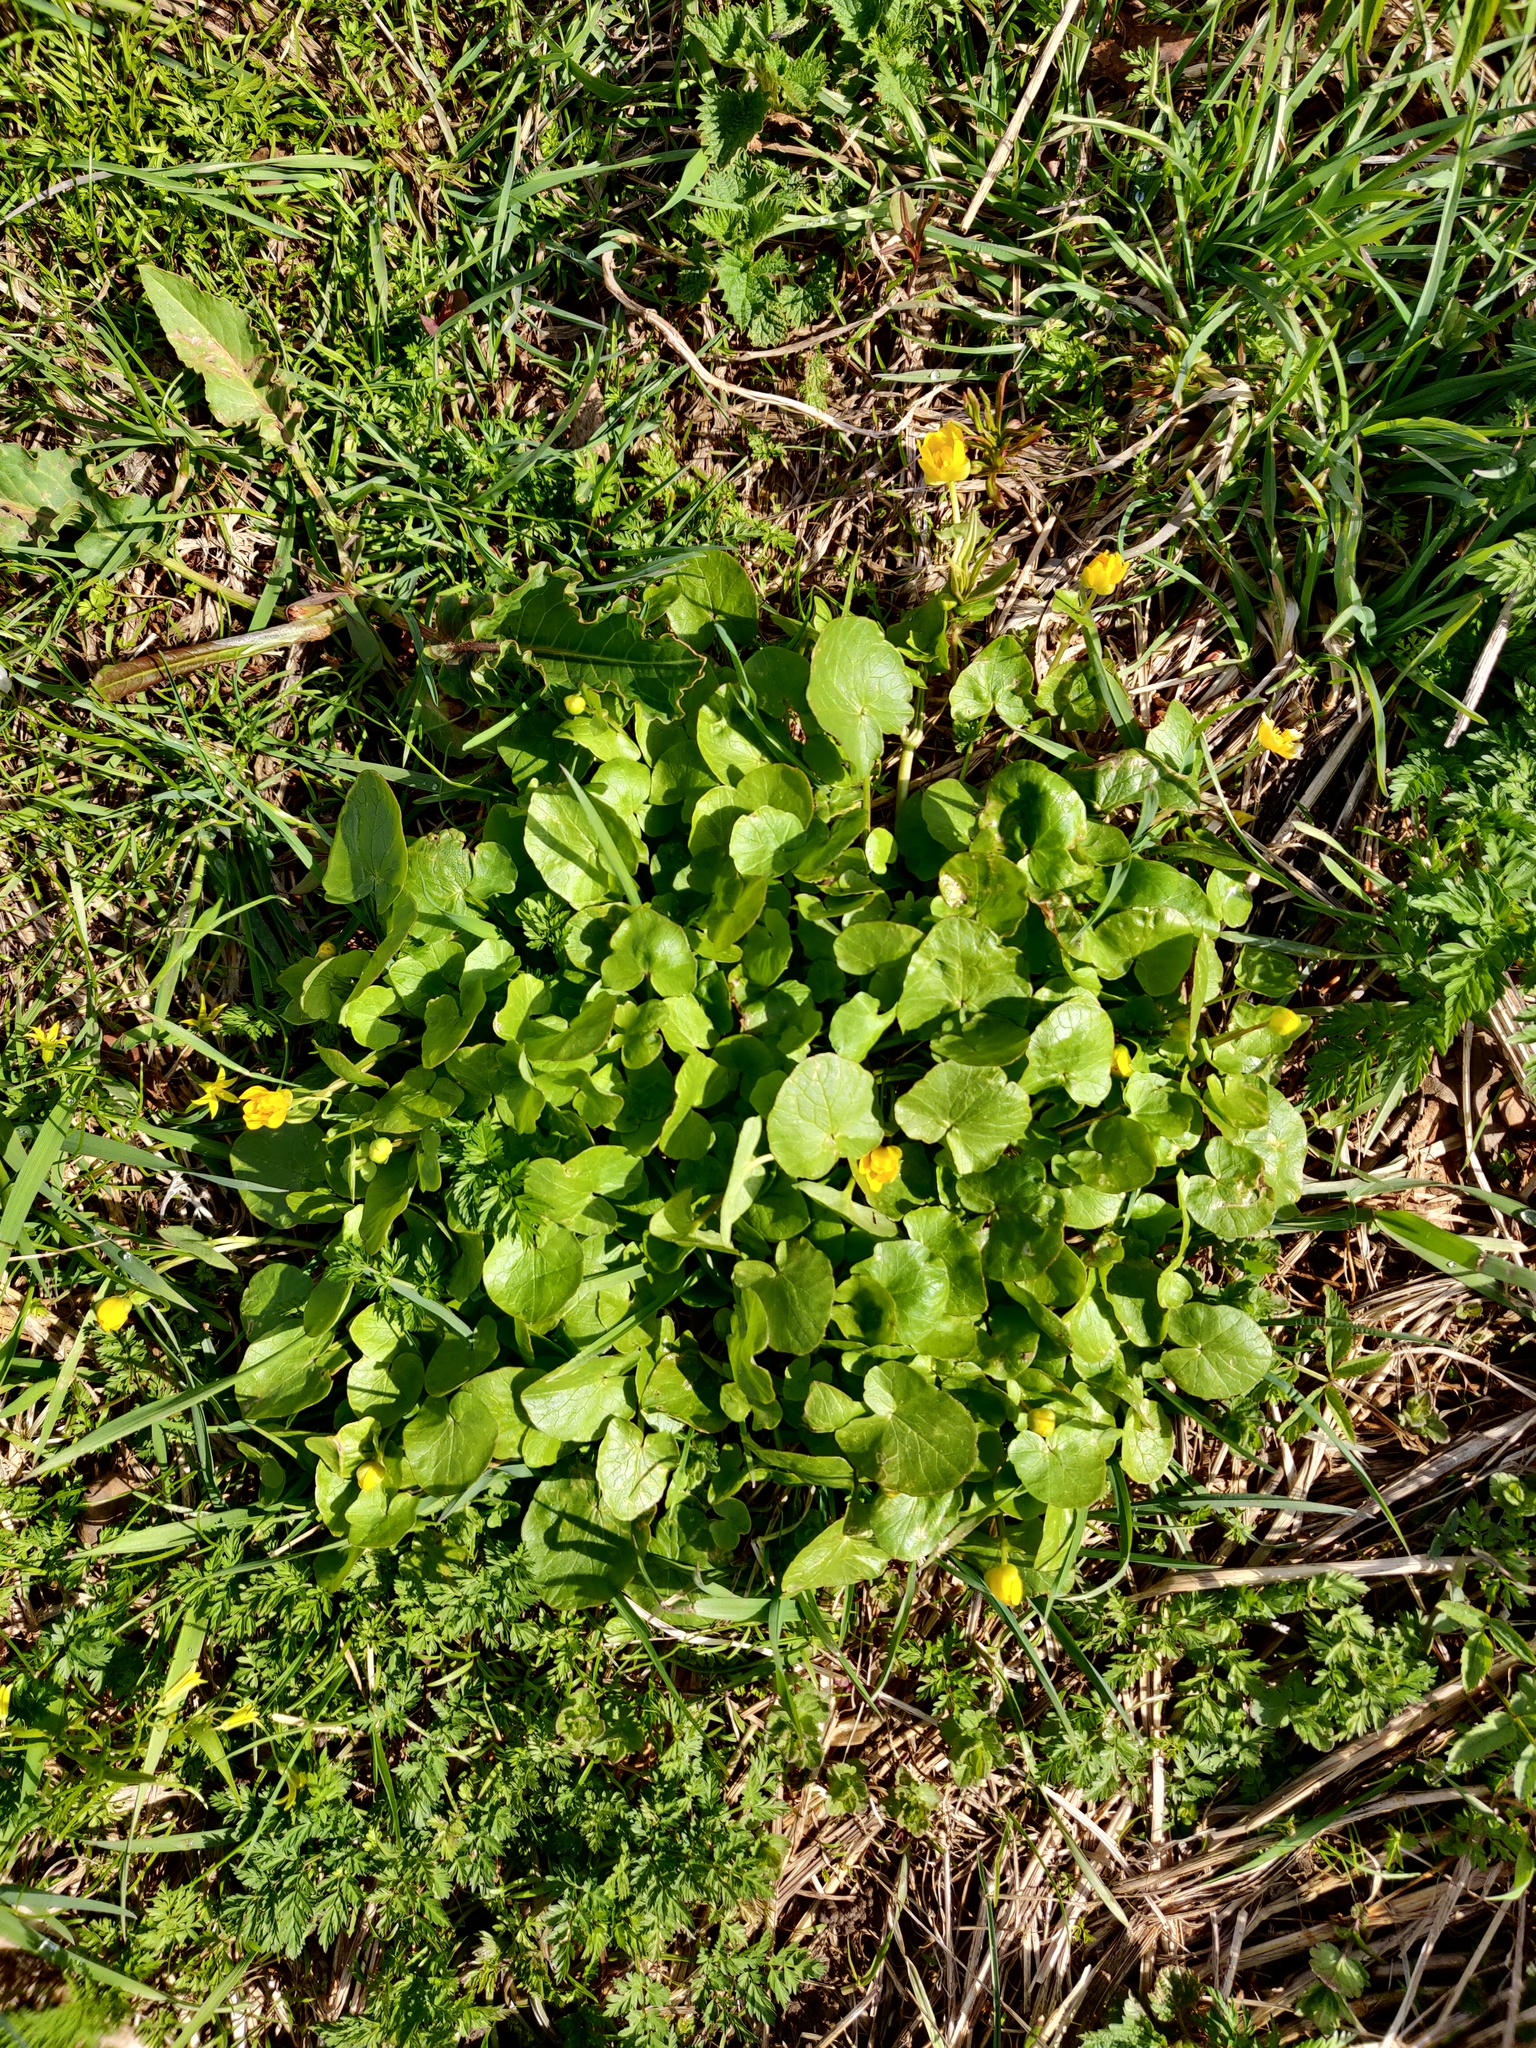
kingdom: Plantae
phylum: Tracheophyta
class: Magnoliopsida
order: Ranunculales
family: Ranunculaceae
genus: Ficaria
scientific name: Ficaria verna
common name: Lesser celandine
